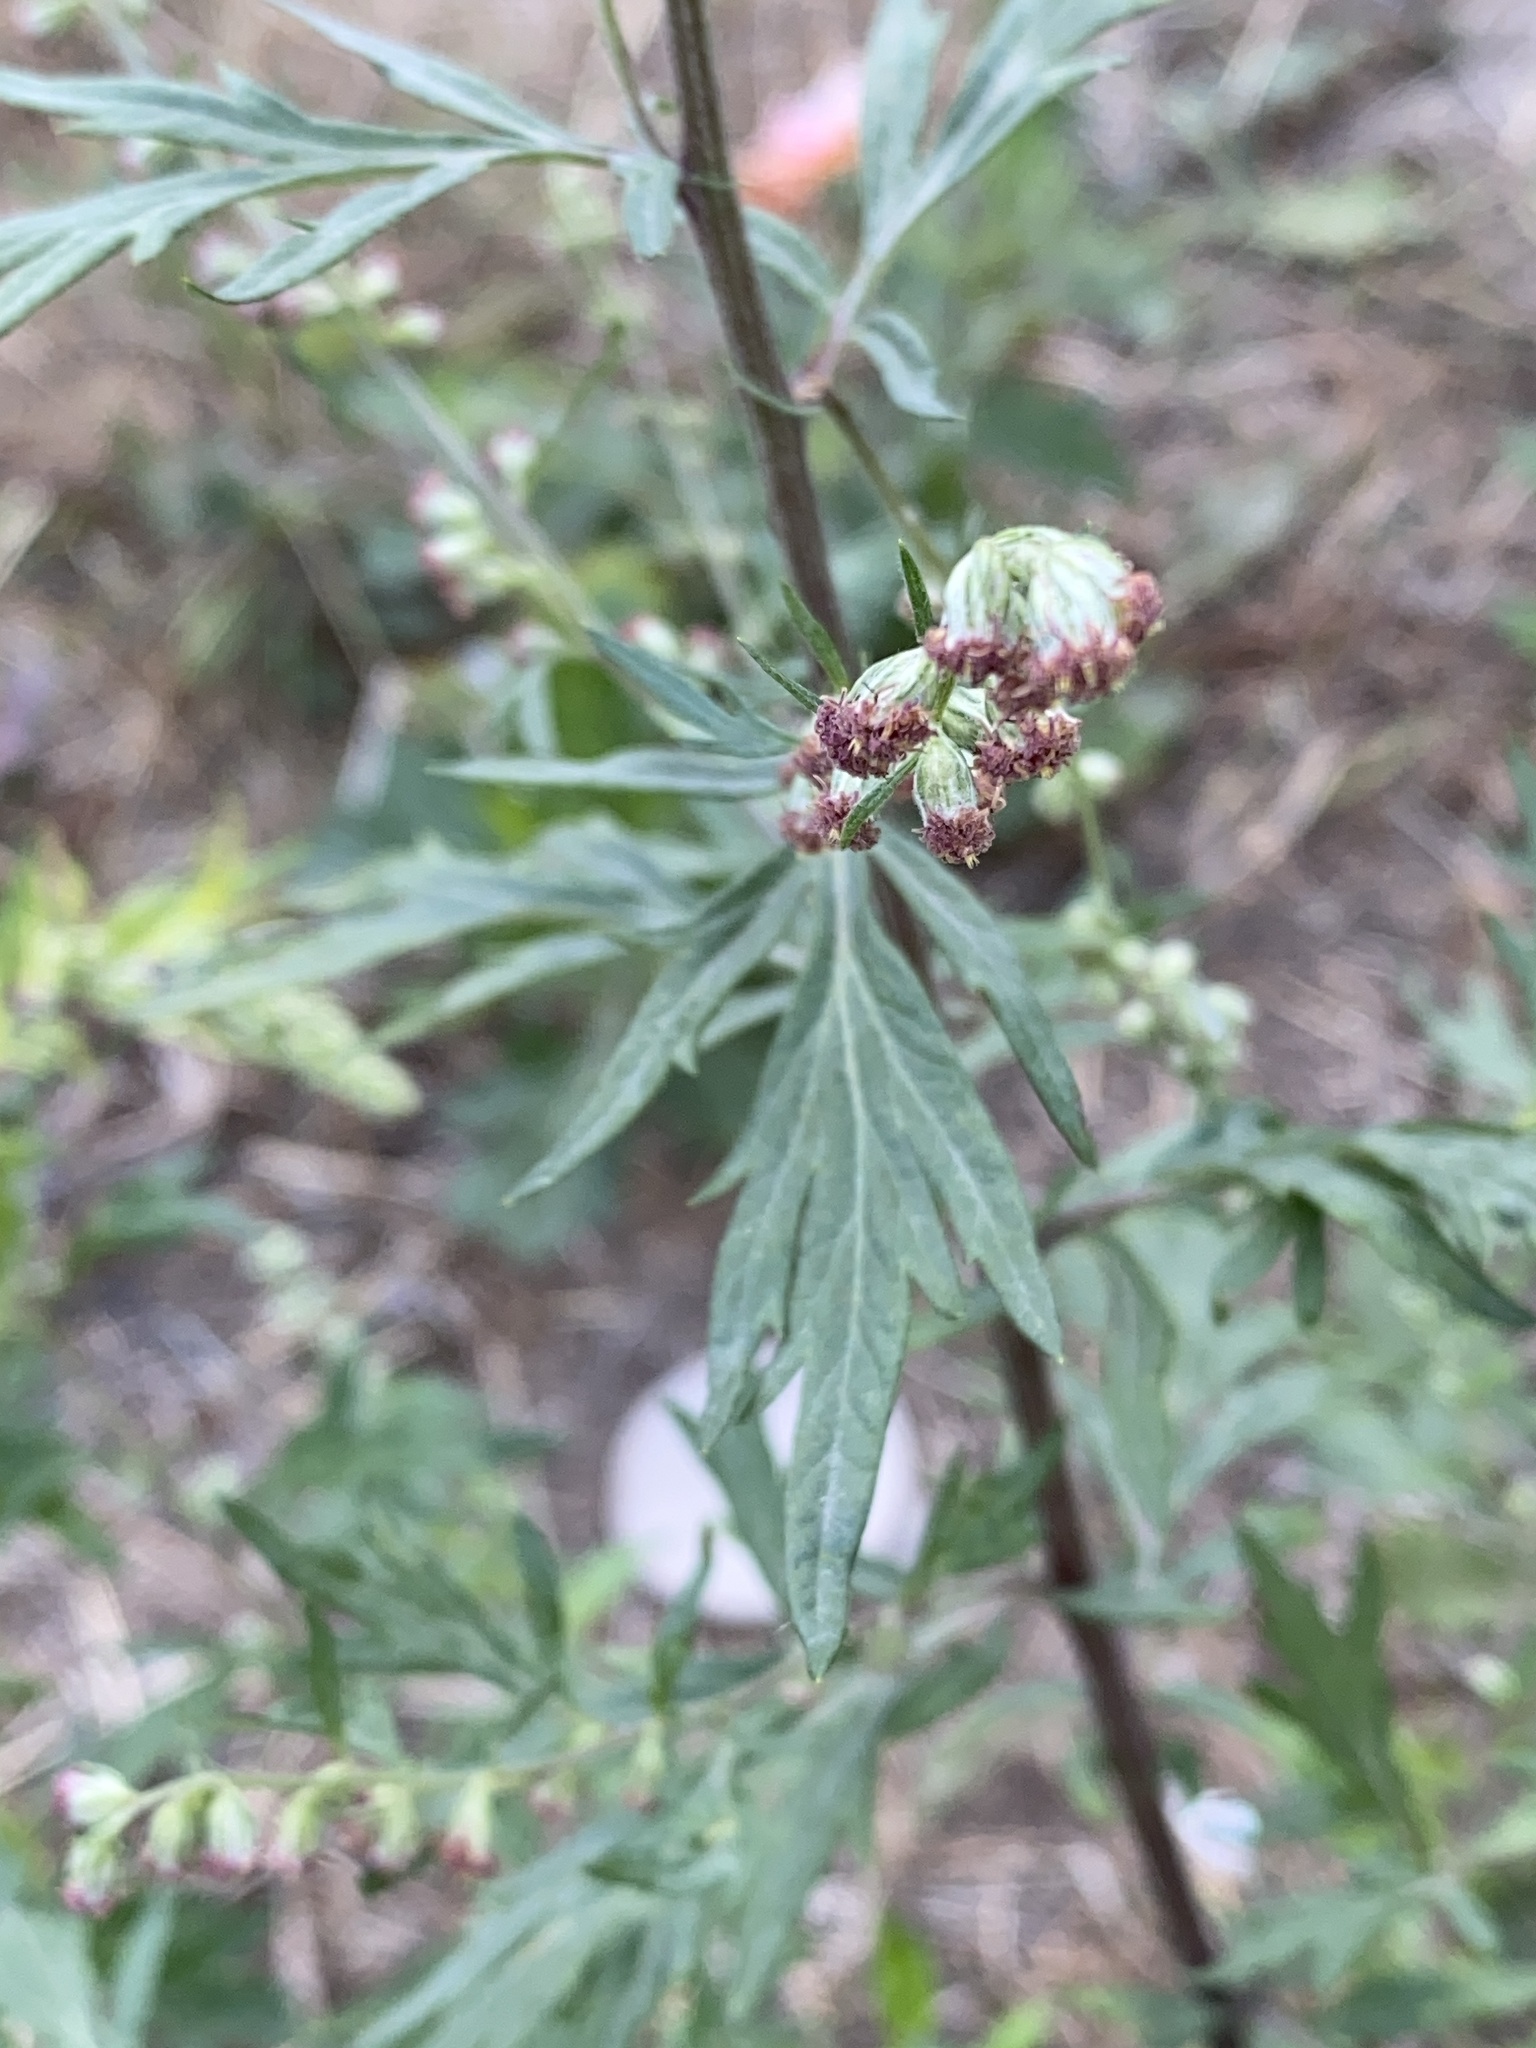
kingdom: Plantae
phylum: Tracheophyta
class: Magnoliopsida
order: Asterales
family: Asteraceae
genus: Artemisia
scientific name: Artemisia vulgaris
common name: Mugwort
